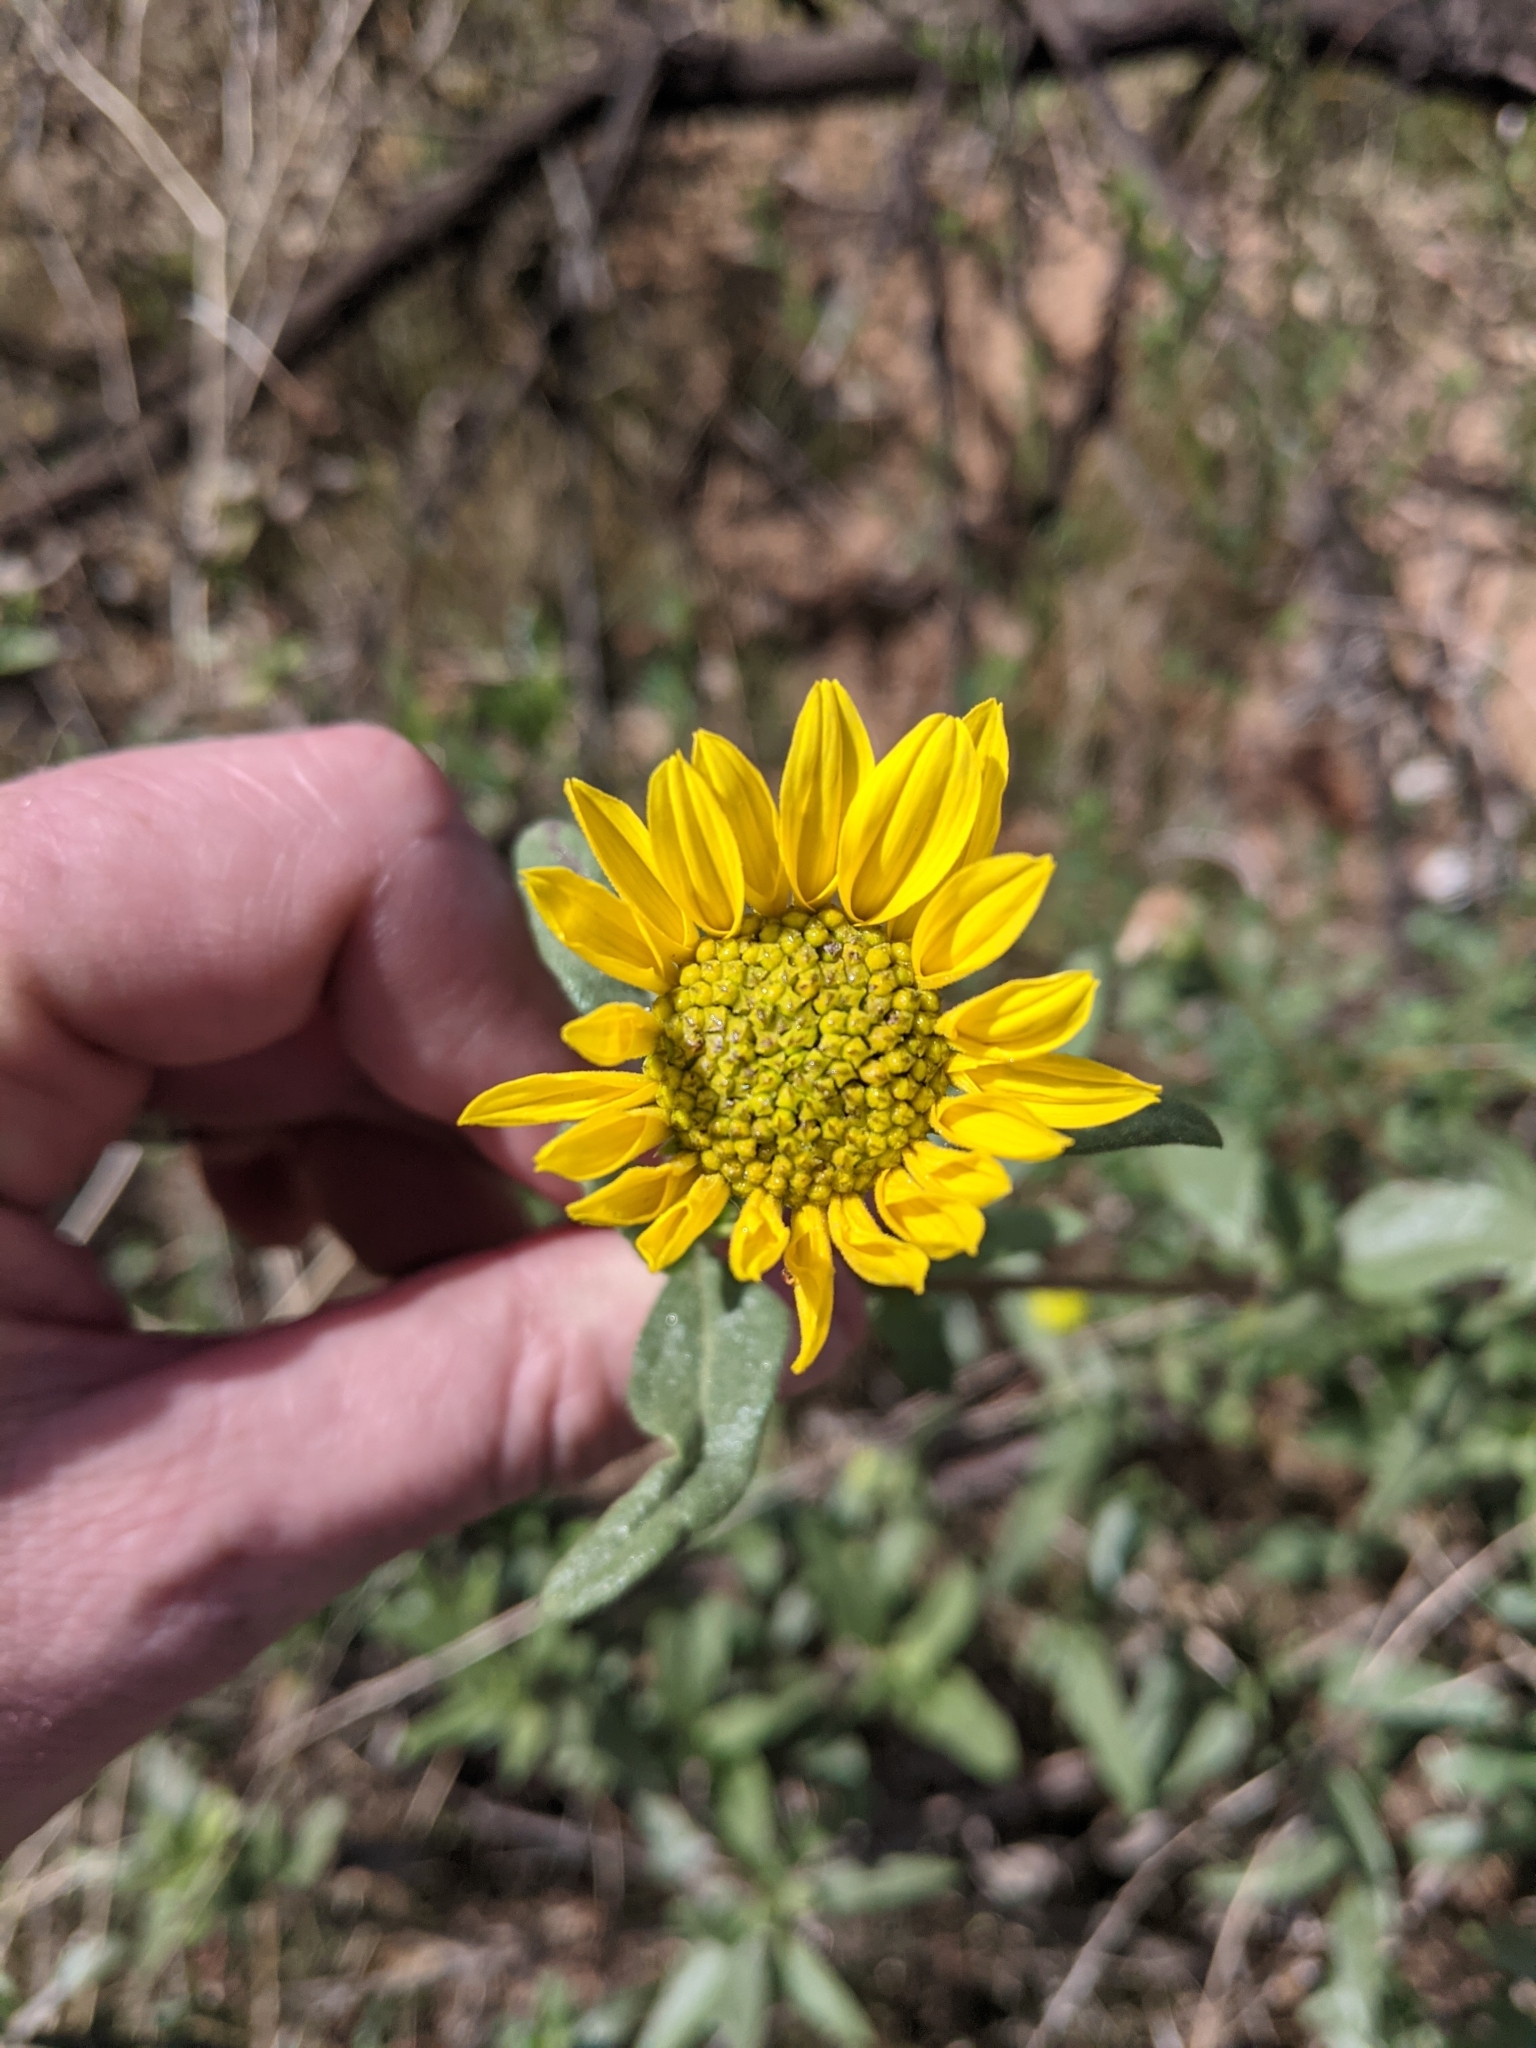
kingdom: Plantae
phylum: Tracheophyta
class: Magnoliopsida
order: Asterales
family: Asteraceae
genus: Helianthus
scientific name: Helianthus gracilentus
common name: Slender sunflower
